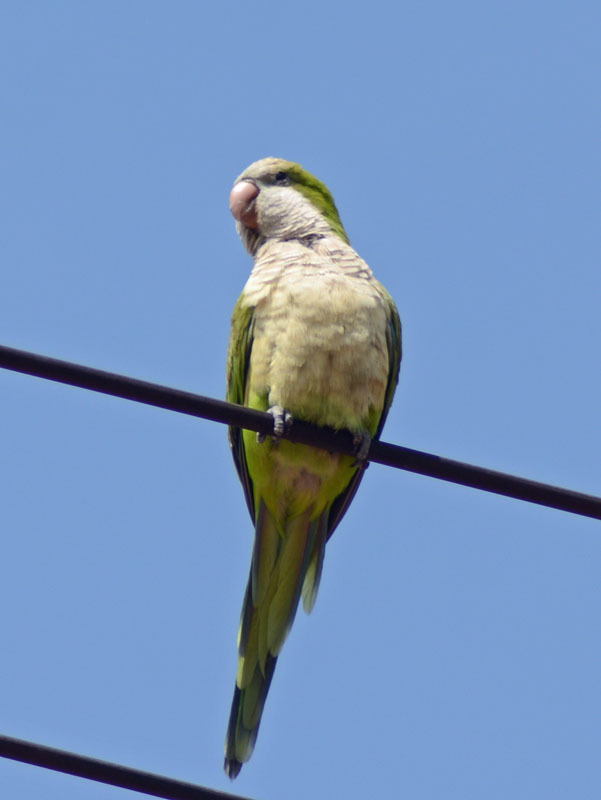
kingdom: Animalia
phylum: Chordata
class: Aves
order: Psittaciformes
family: Psittacidae
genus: Myiopsitta
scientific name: Myiopsitta monachus
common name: Monk parakeet
